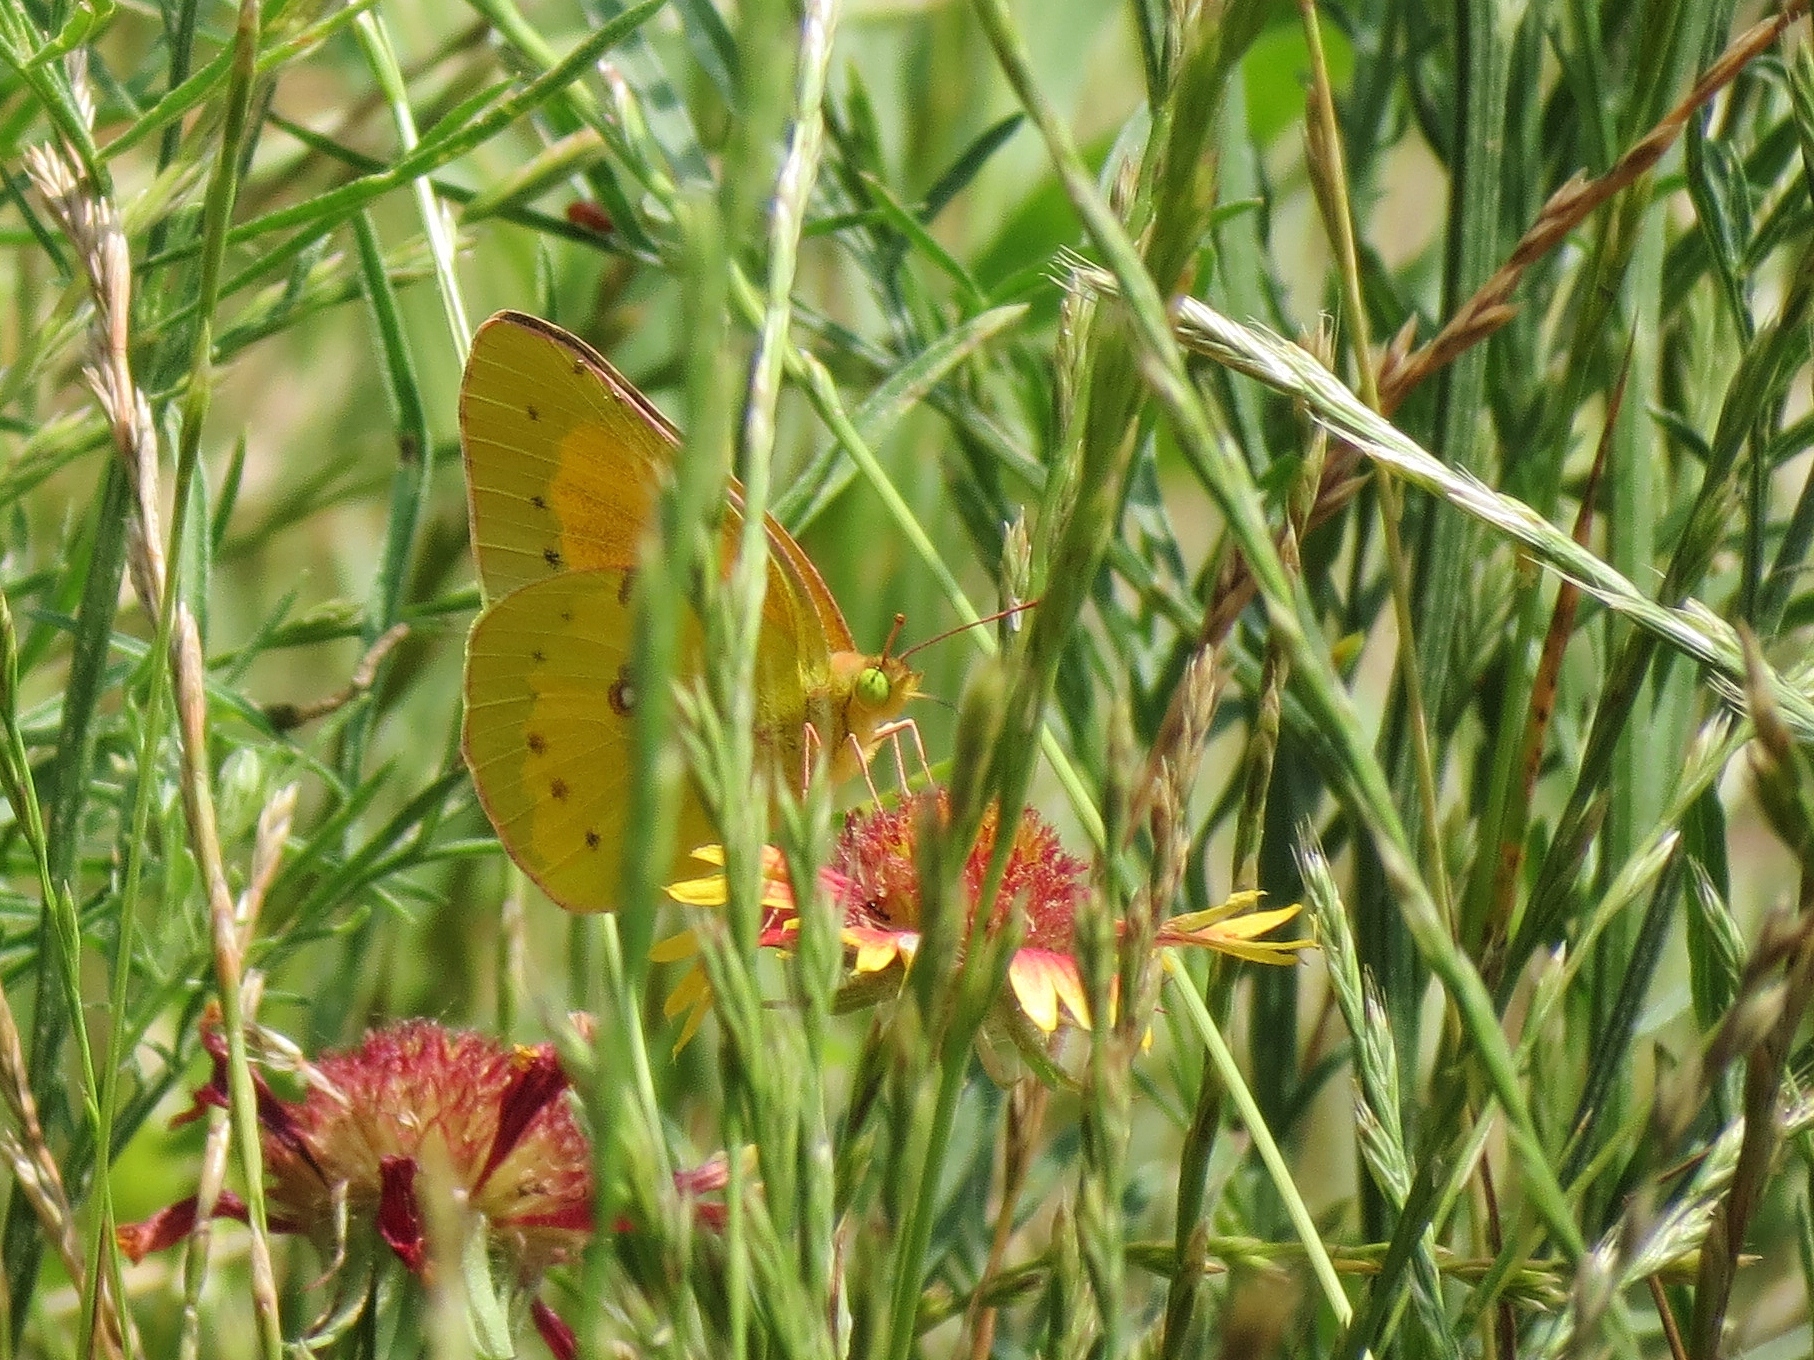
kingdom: Animalia
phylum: Arthropoda
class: Insecta
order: Lepidoptera
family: Pieridae
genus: Colias
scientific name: Colias eurytheme
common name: Alfalfa butterfly
